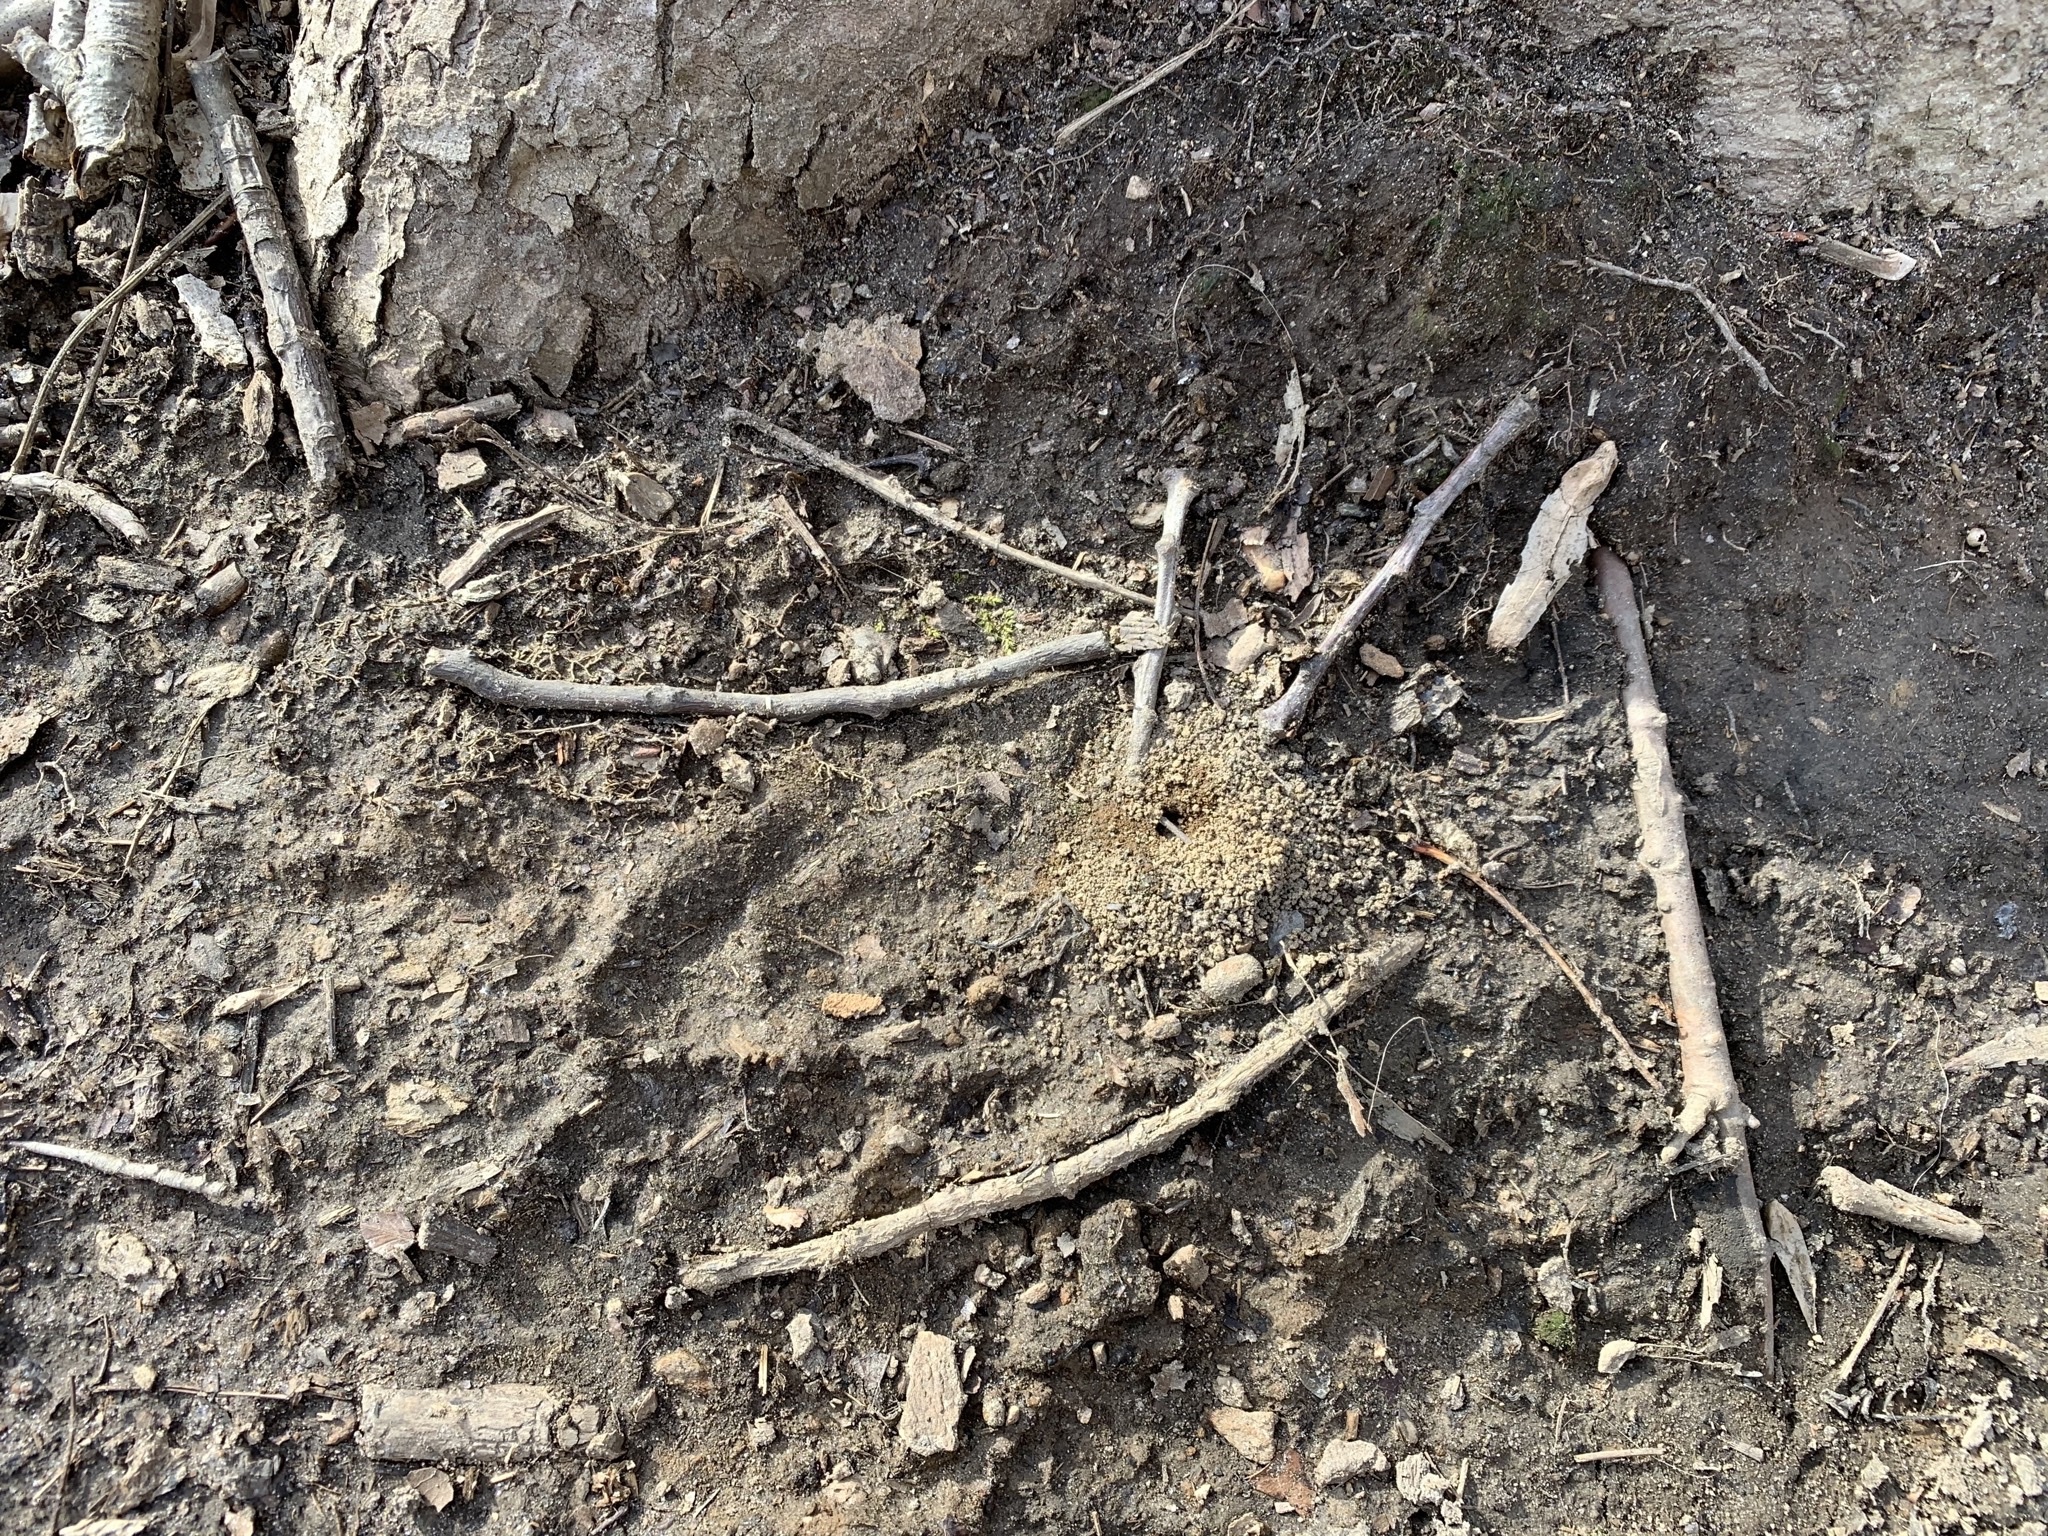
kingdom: Animalia
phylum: Arthropoda
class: Insecta
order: Hymenoptera
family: Formicidae
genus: Prenolepis
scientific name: Prenolepis imparis
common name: Small honey ant
